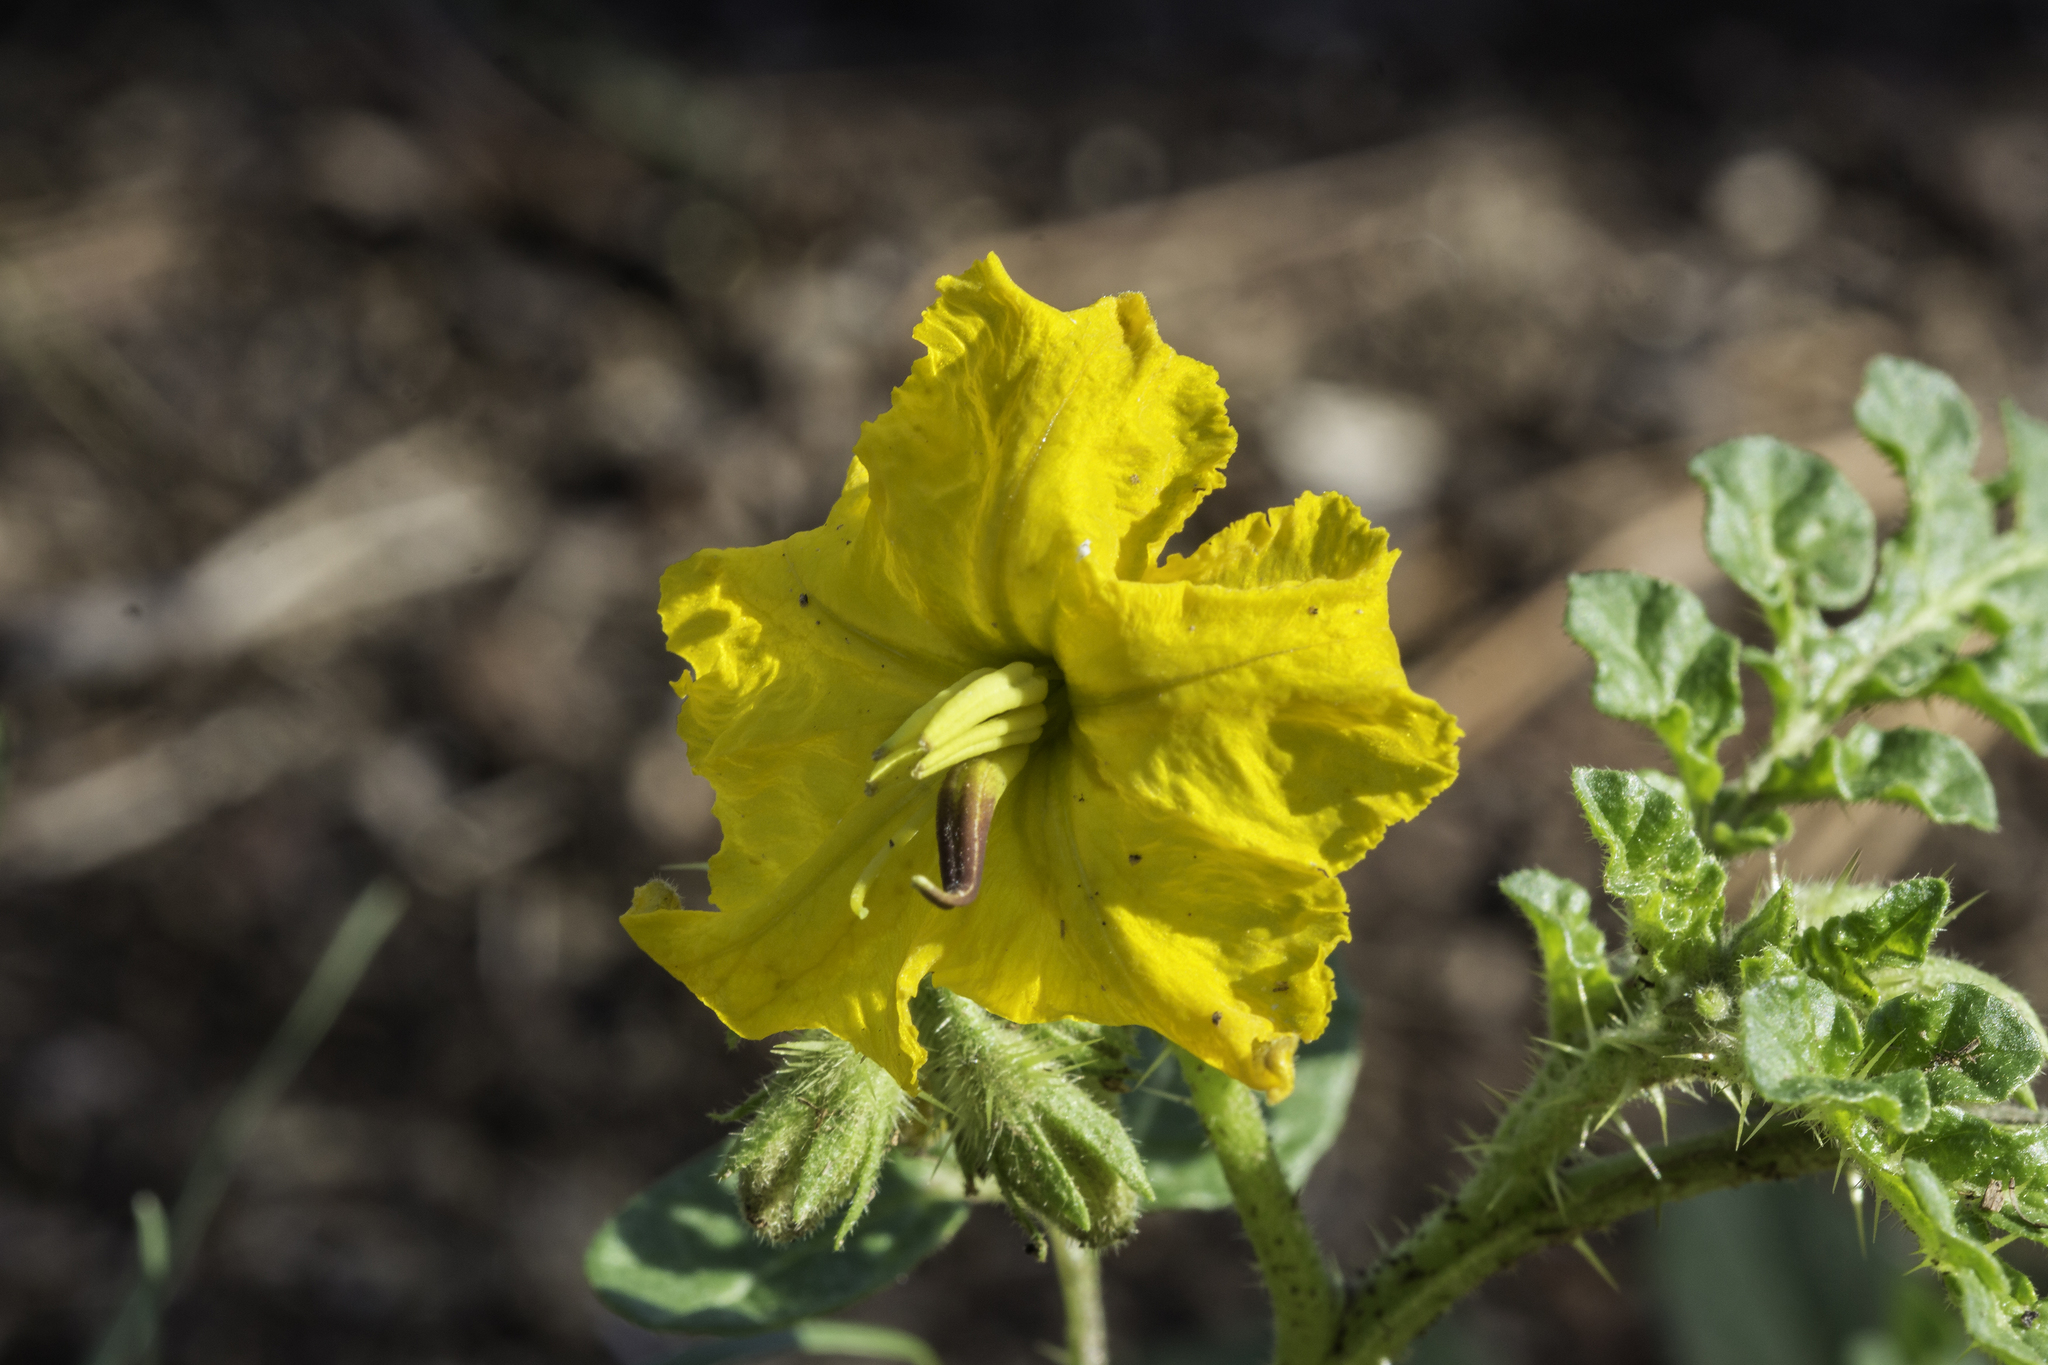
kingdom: Plantae
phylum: Tracheophyta
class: Magnoliopsida
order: Solanales
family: Solanaceae
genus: Solanum
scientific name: Solanum angustifolium
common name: Buffalobur nightshade
